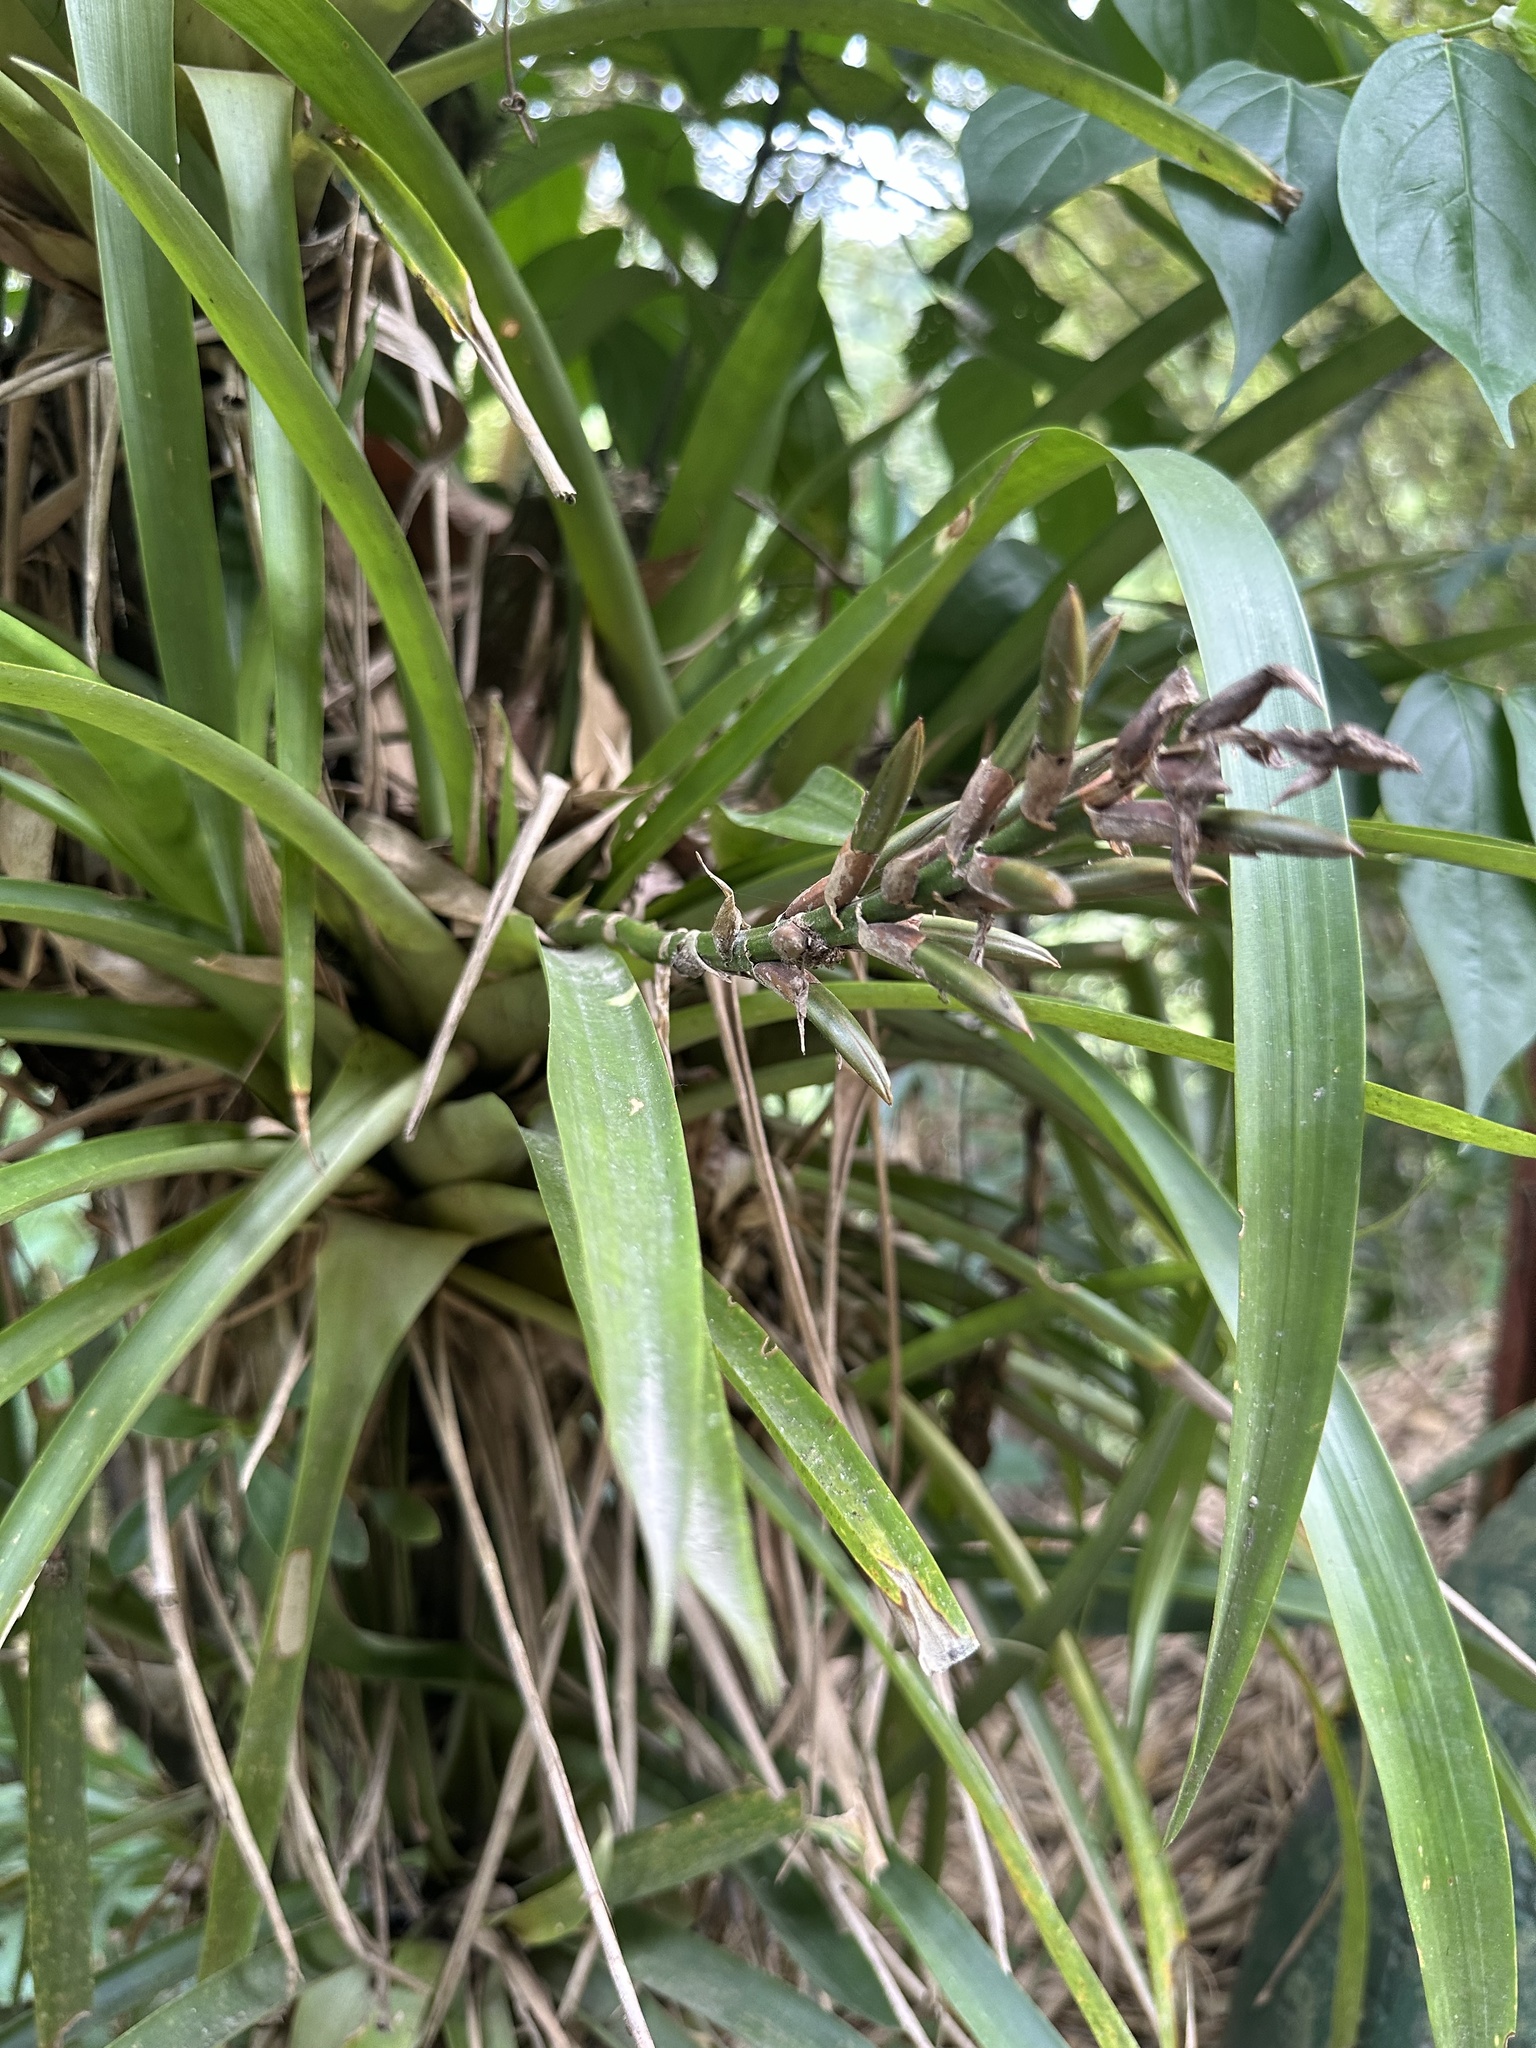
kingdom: Plantae
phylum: Tracheophyta
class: Liliopsida
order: Poales
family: Bromeliaceae
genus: Guzmania
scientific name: Guzmania monostachia
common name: West indian tufted airplant
